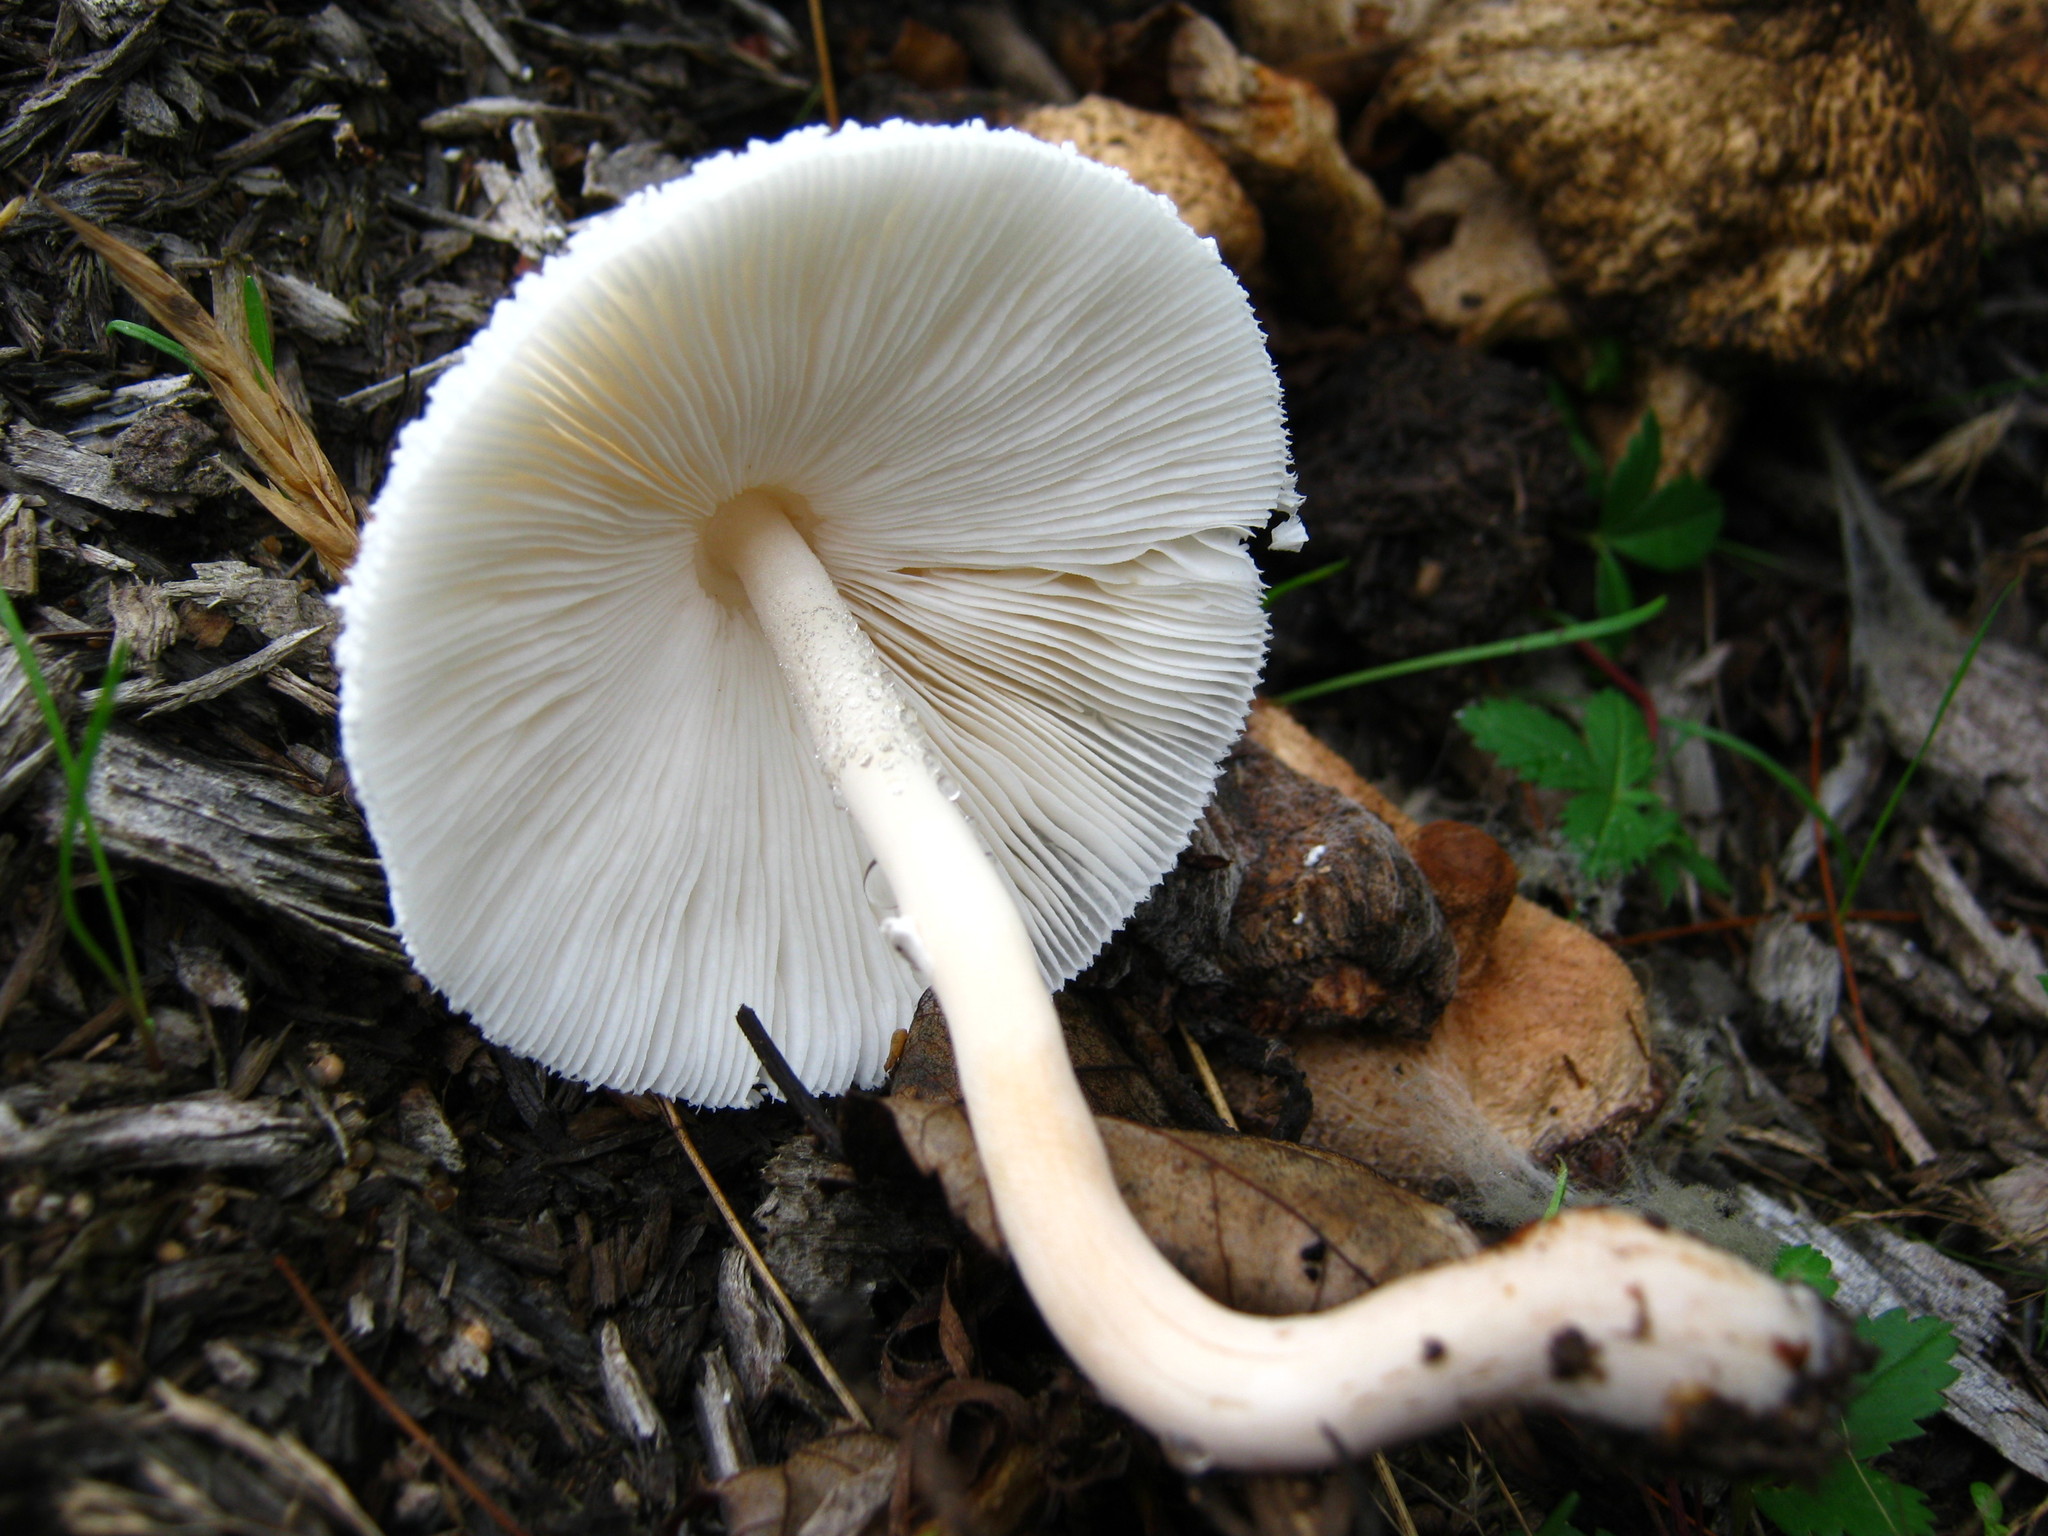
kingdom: Fungi
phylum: Basidiomycota
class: Agaricomycetes
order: Agaricales
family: Agaricaceae
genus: Leucocoprinus
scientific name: Leucocoprinus cepistipes
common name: Onion-stalk parasol
